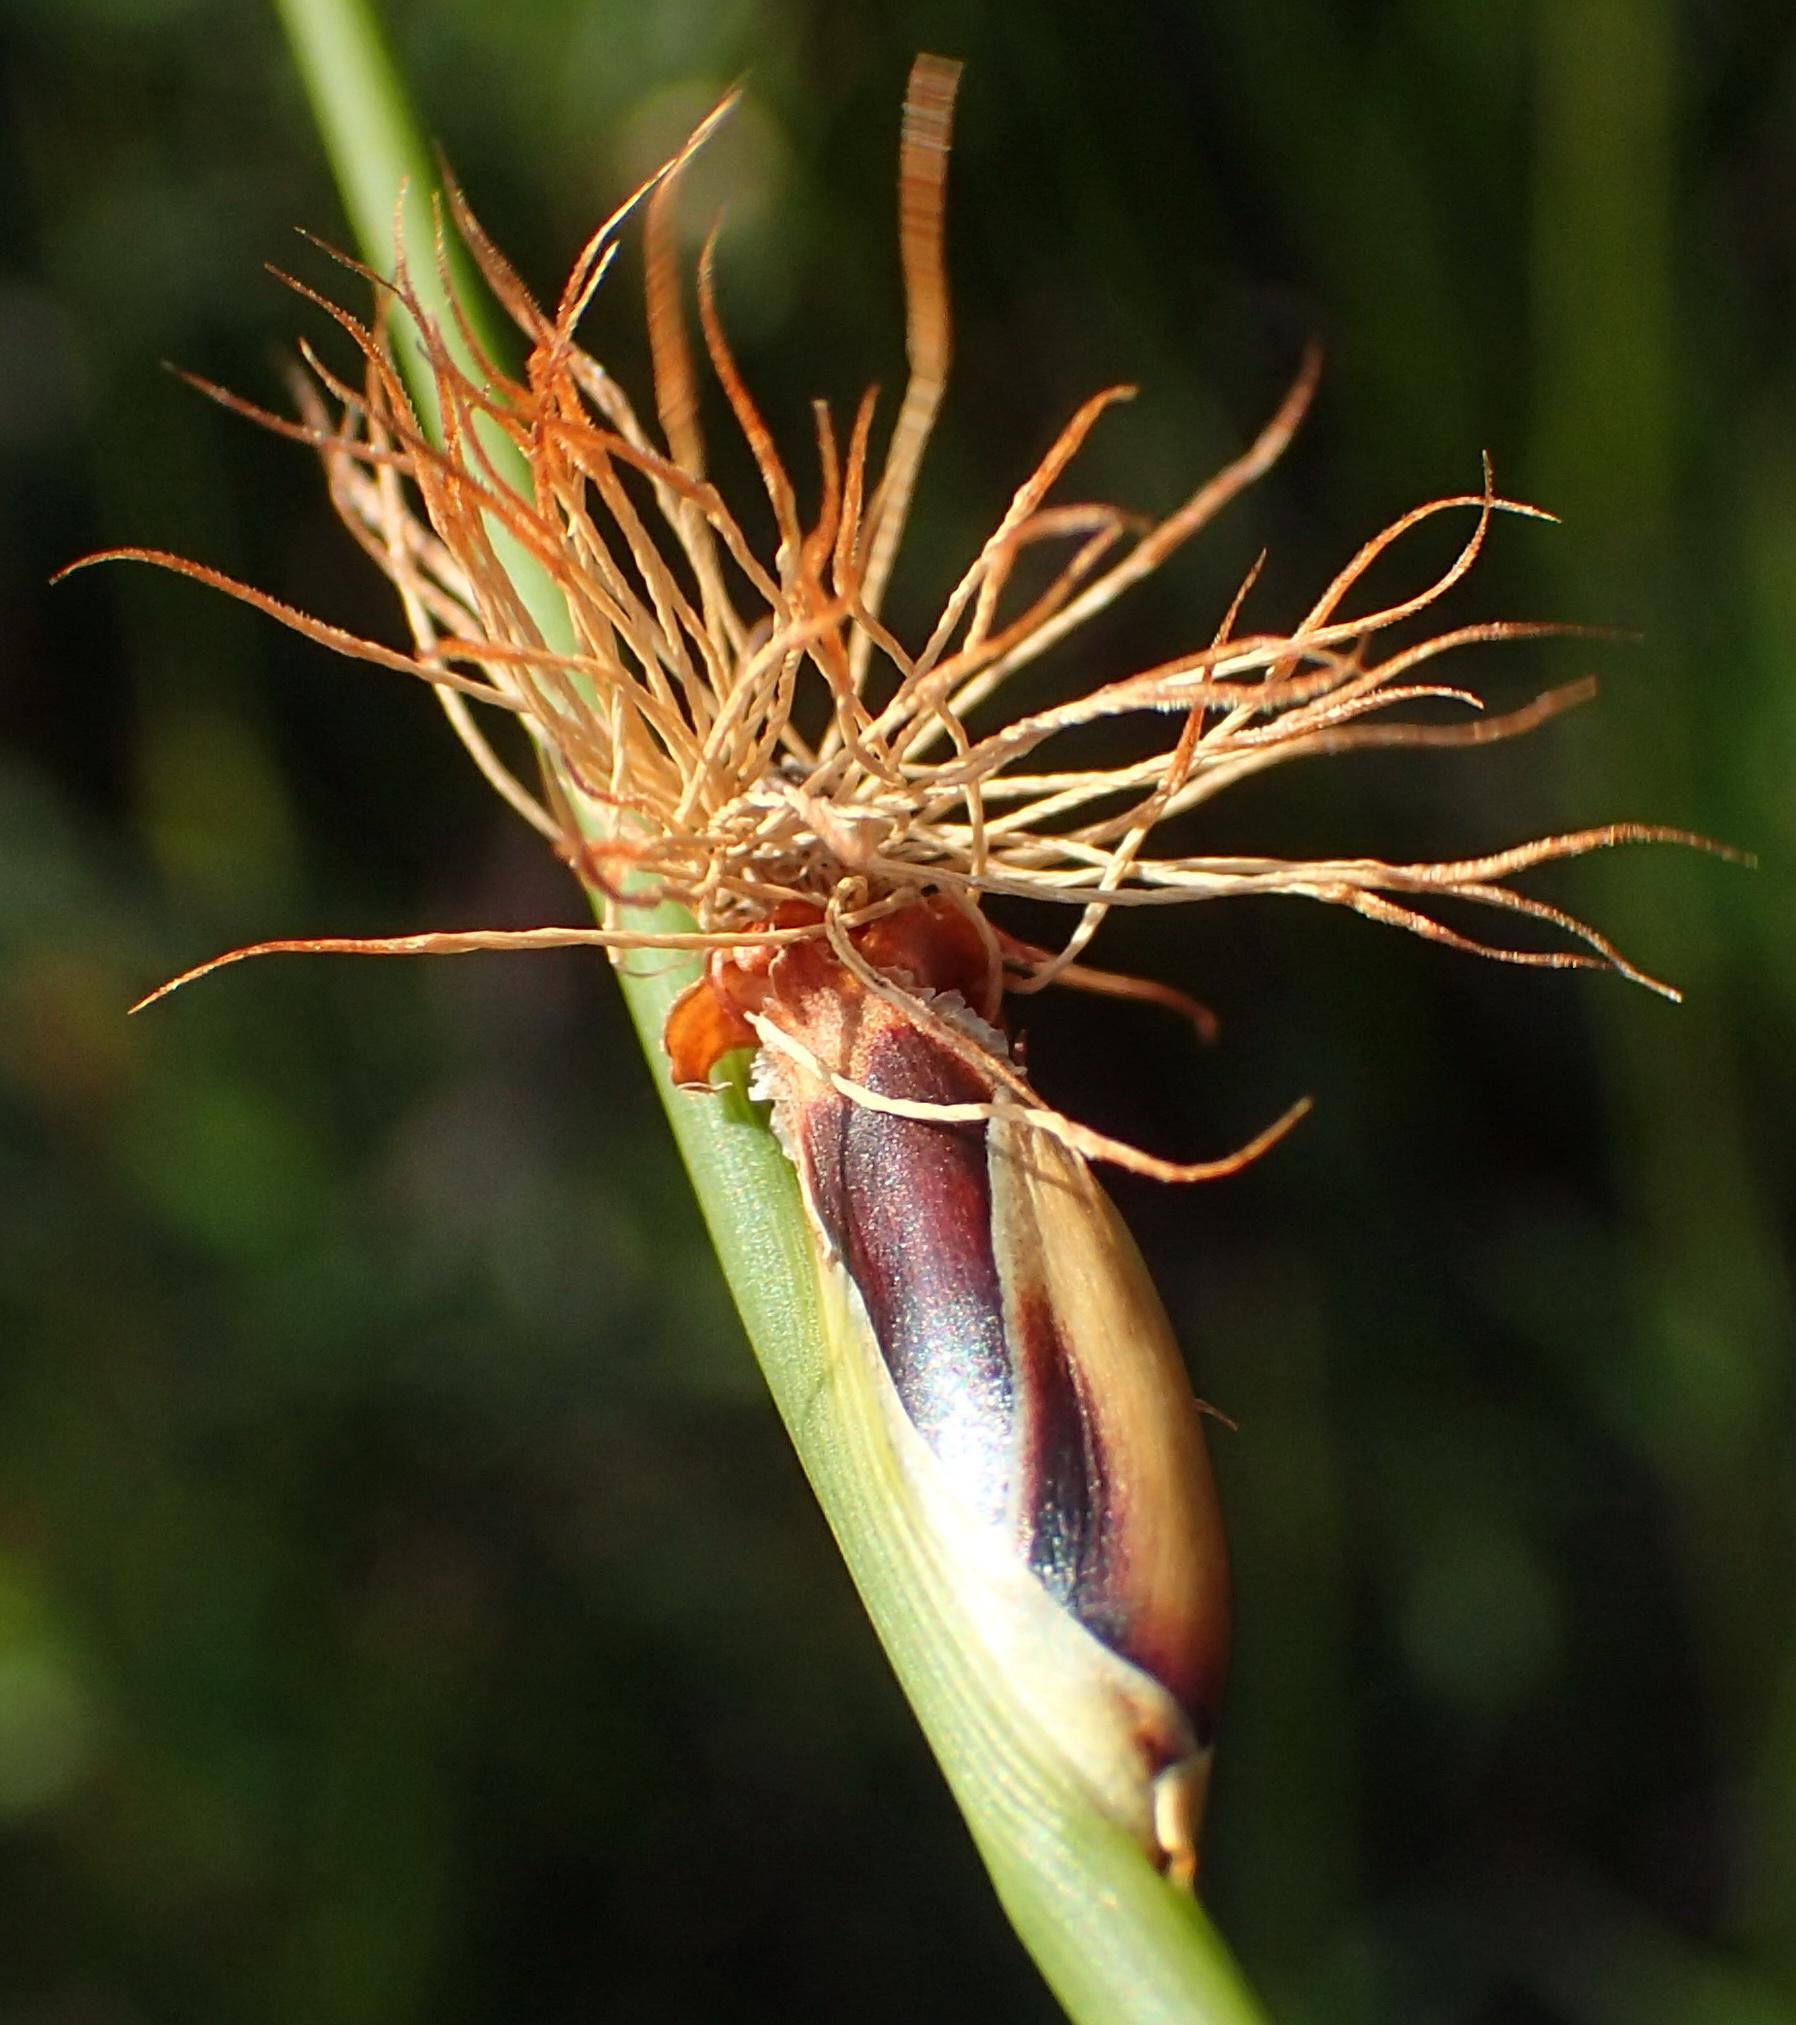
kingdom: Plantae
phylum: Tracheophyta
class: Liliopsida
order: Poales
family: Cyperaceae
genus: Chrysitrix
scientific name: Chrysitrix capensis
